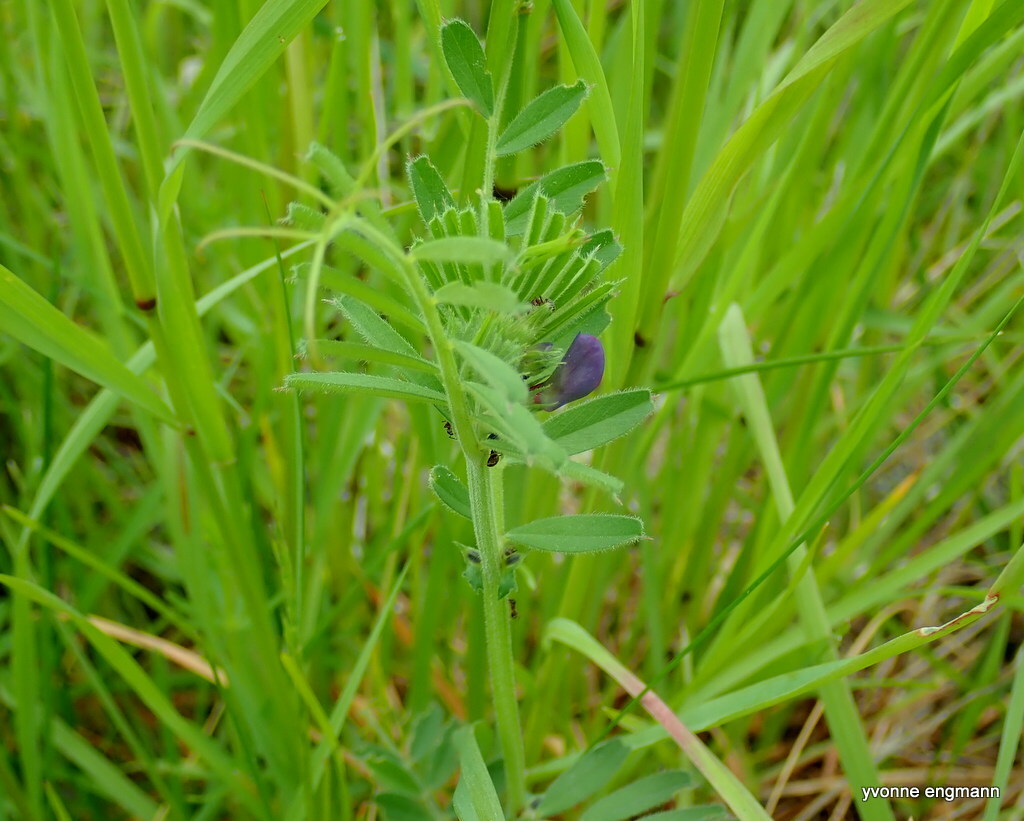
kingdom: Plantae
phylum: Tracheophyta
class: Magnoliopsida
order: Fabales
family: Fabaceae
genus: Vicia
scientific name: Vicia sativa
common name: Garden vetch
